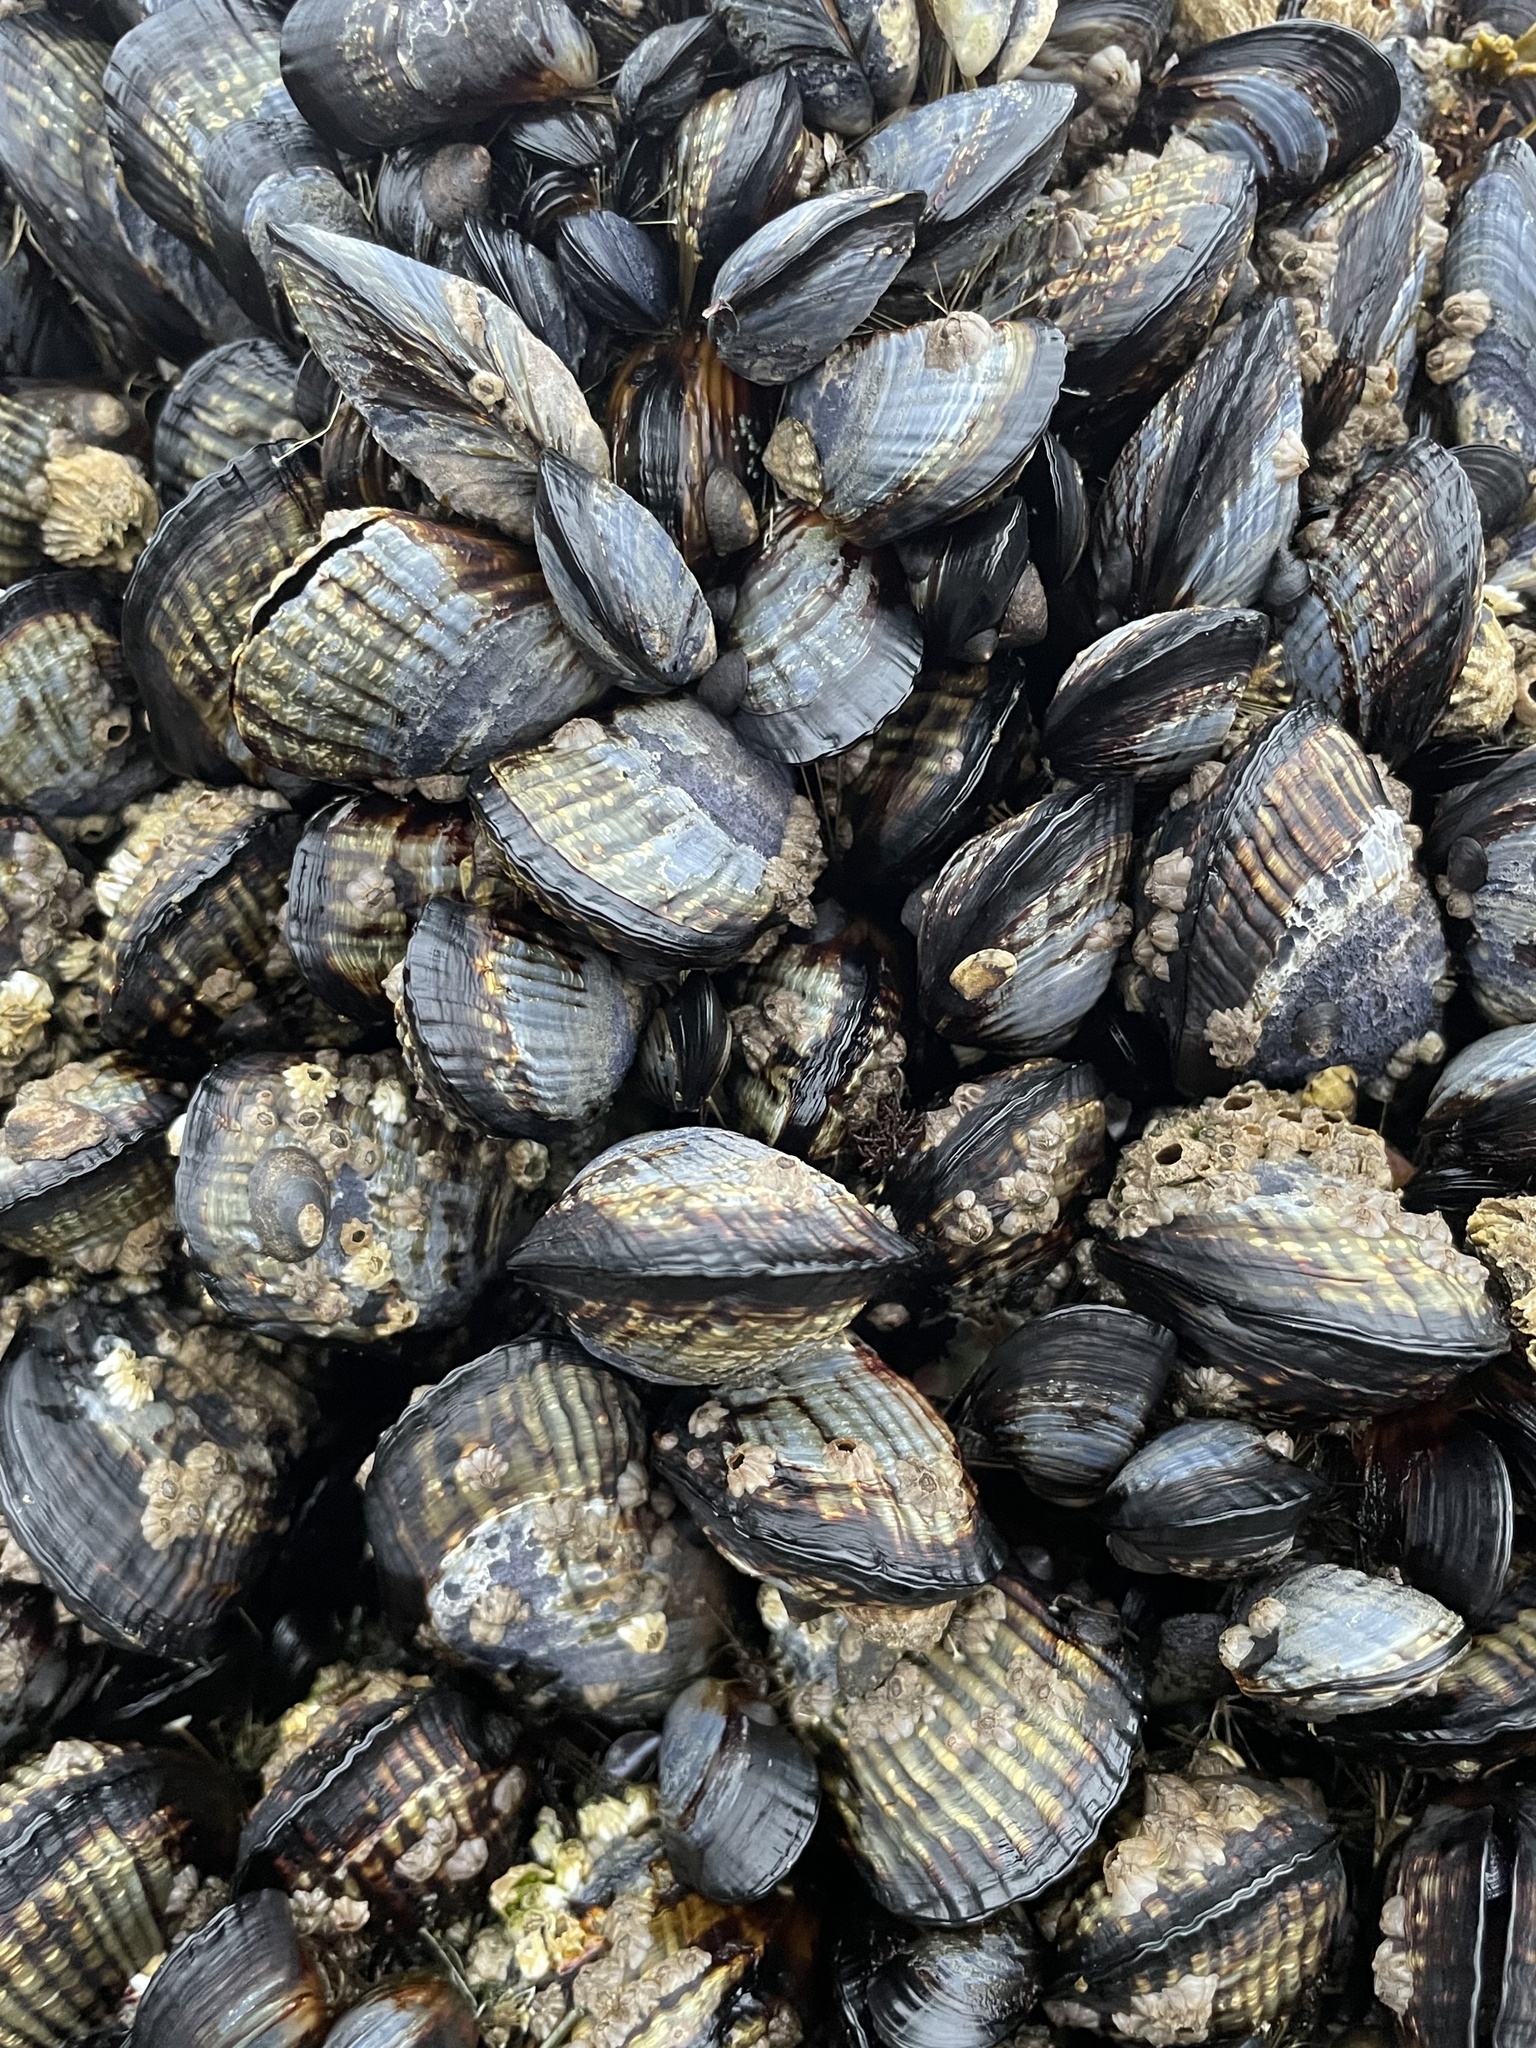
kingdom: Animalia
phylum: Mollusca
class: Bivalvia
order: Mytilida
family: Mytilidae
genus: Mytilus
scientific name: Mytilus californianus
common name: California mussel
